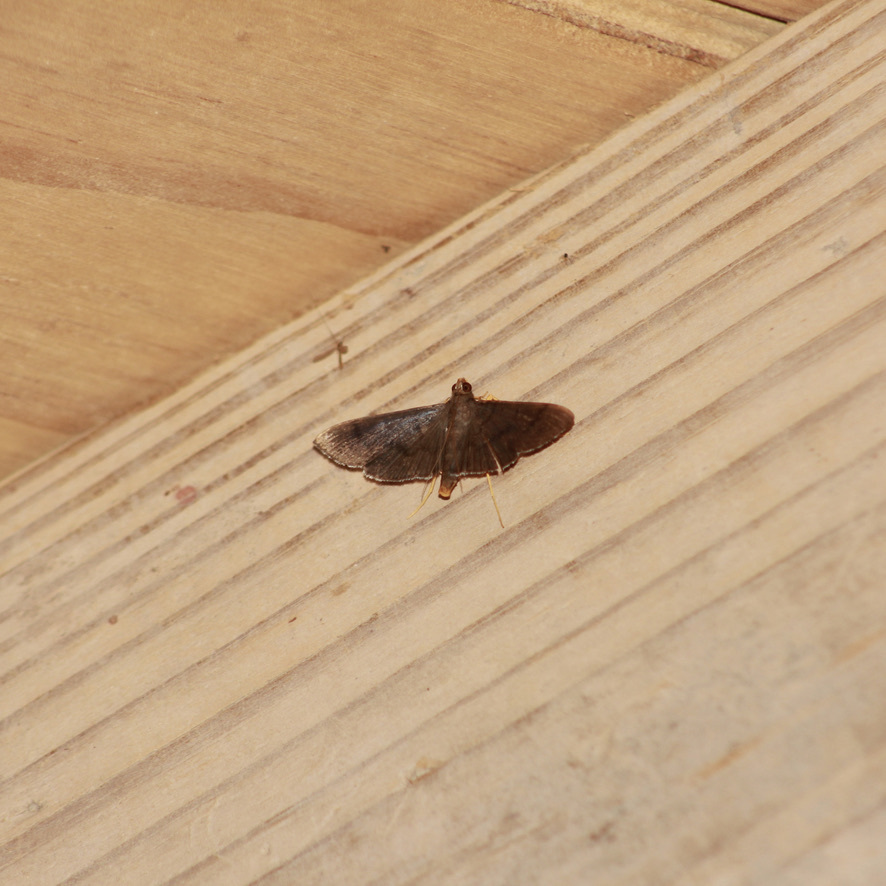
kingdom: Animalia
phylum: Arthropoda
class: Insecta
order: Lepidoptera
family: Crambidae
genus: Omiodes
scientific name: Omiodes fulvicauda
